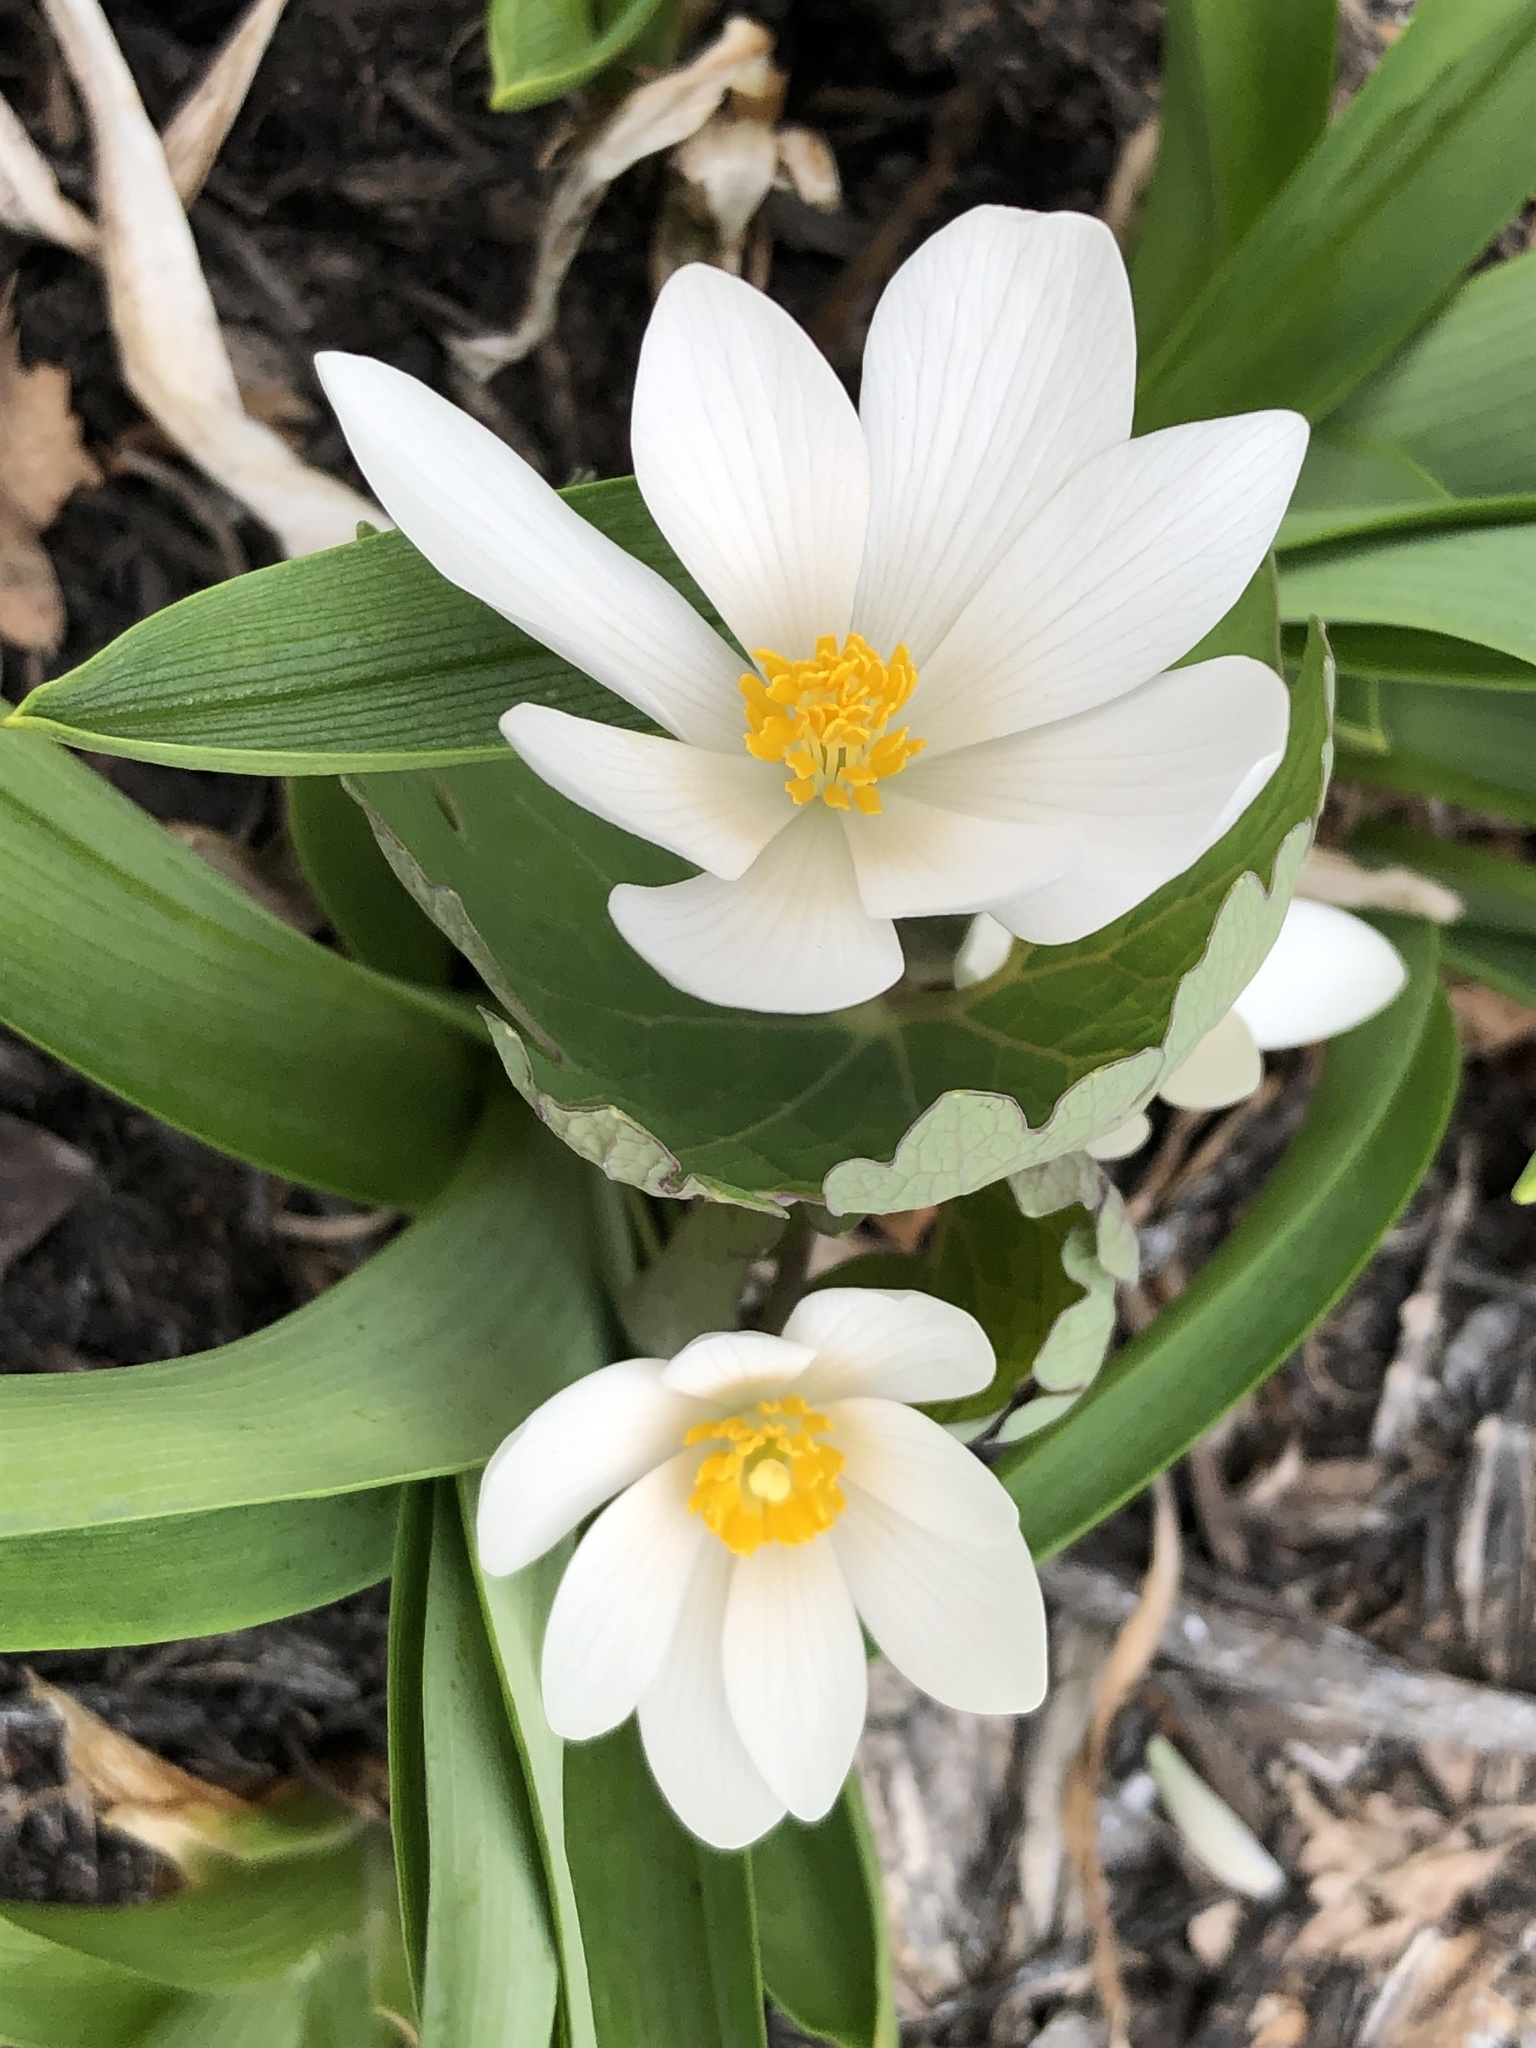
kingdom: Plantae
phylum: Tracheophyta
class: Magnoliopsida
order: Ranunculales
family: Papaveraceae
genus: Sanguinaria
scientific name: Sanguinaria canadensis
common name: Bloodroot
